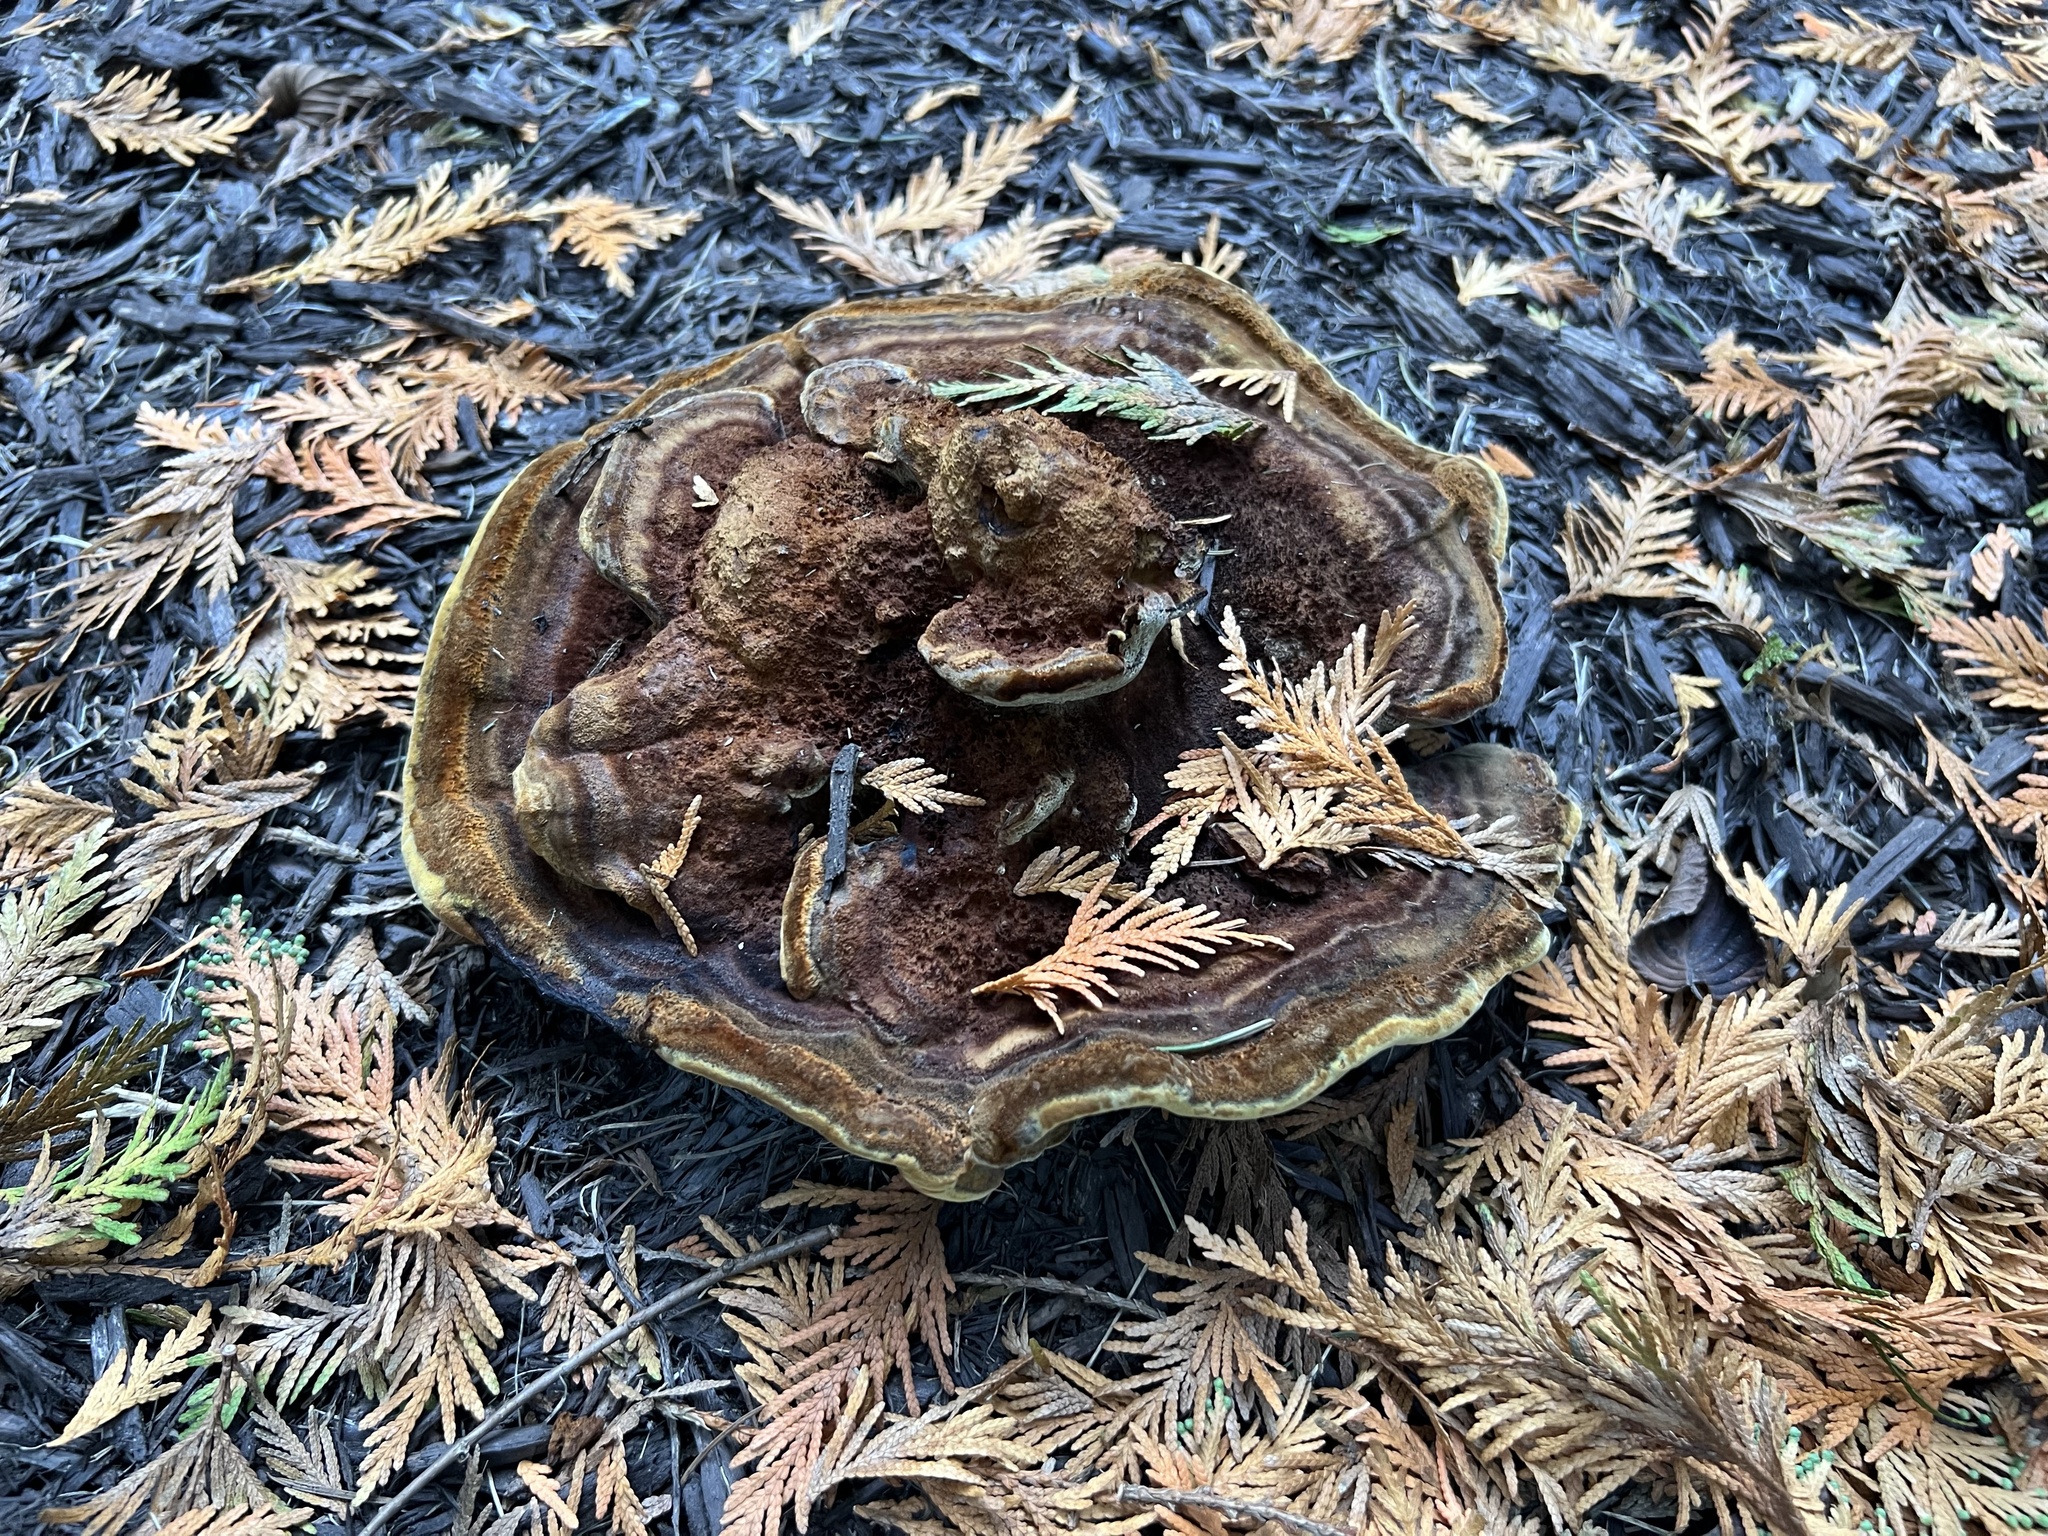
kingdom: Fungi
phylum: Basidiomycota
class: Agaricomycetes
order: Polyporales
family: Laetiporaceae
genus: Phaeolus
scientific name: Phaeolus schweinitzii
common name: Dyer's mazegill
